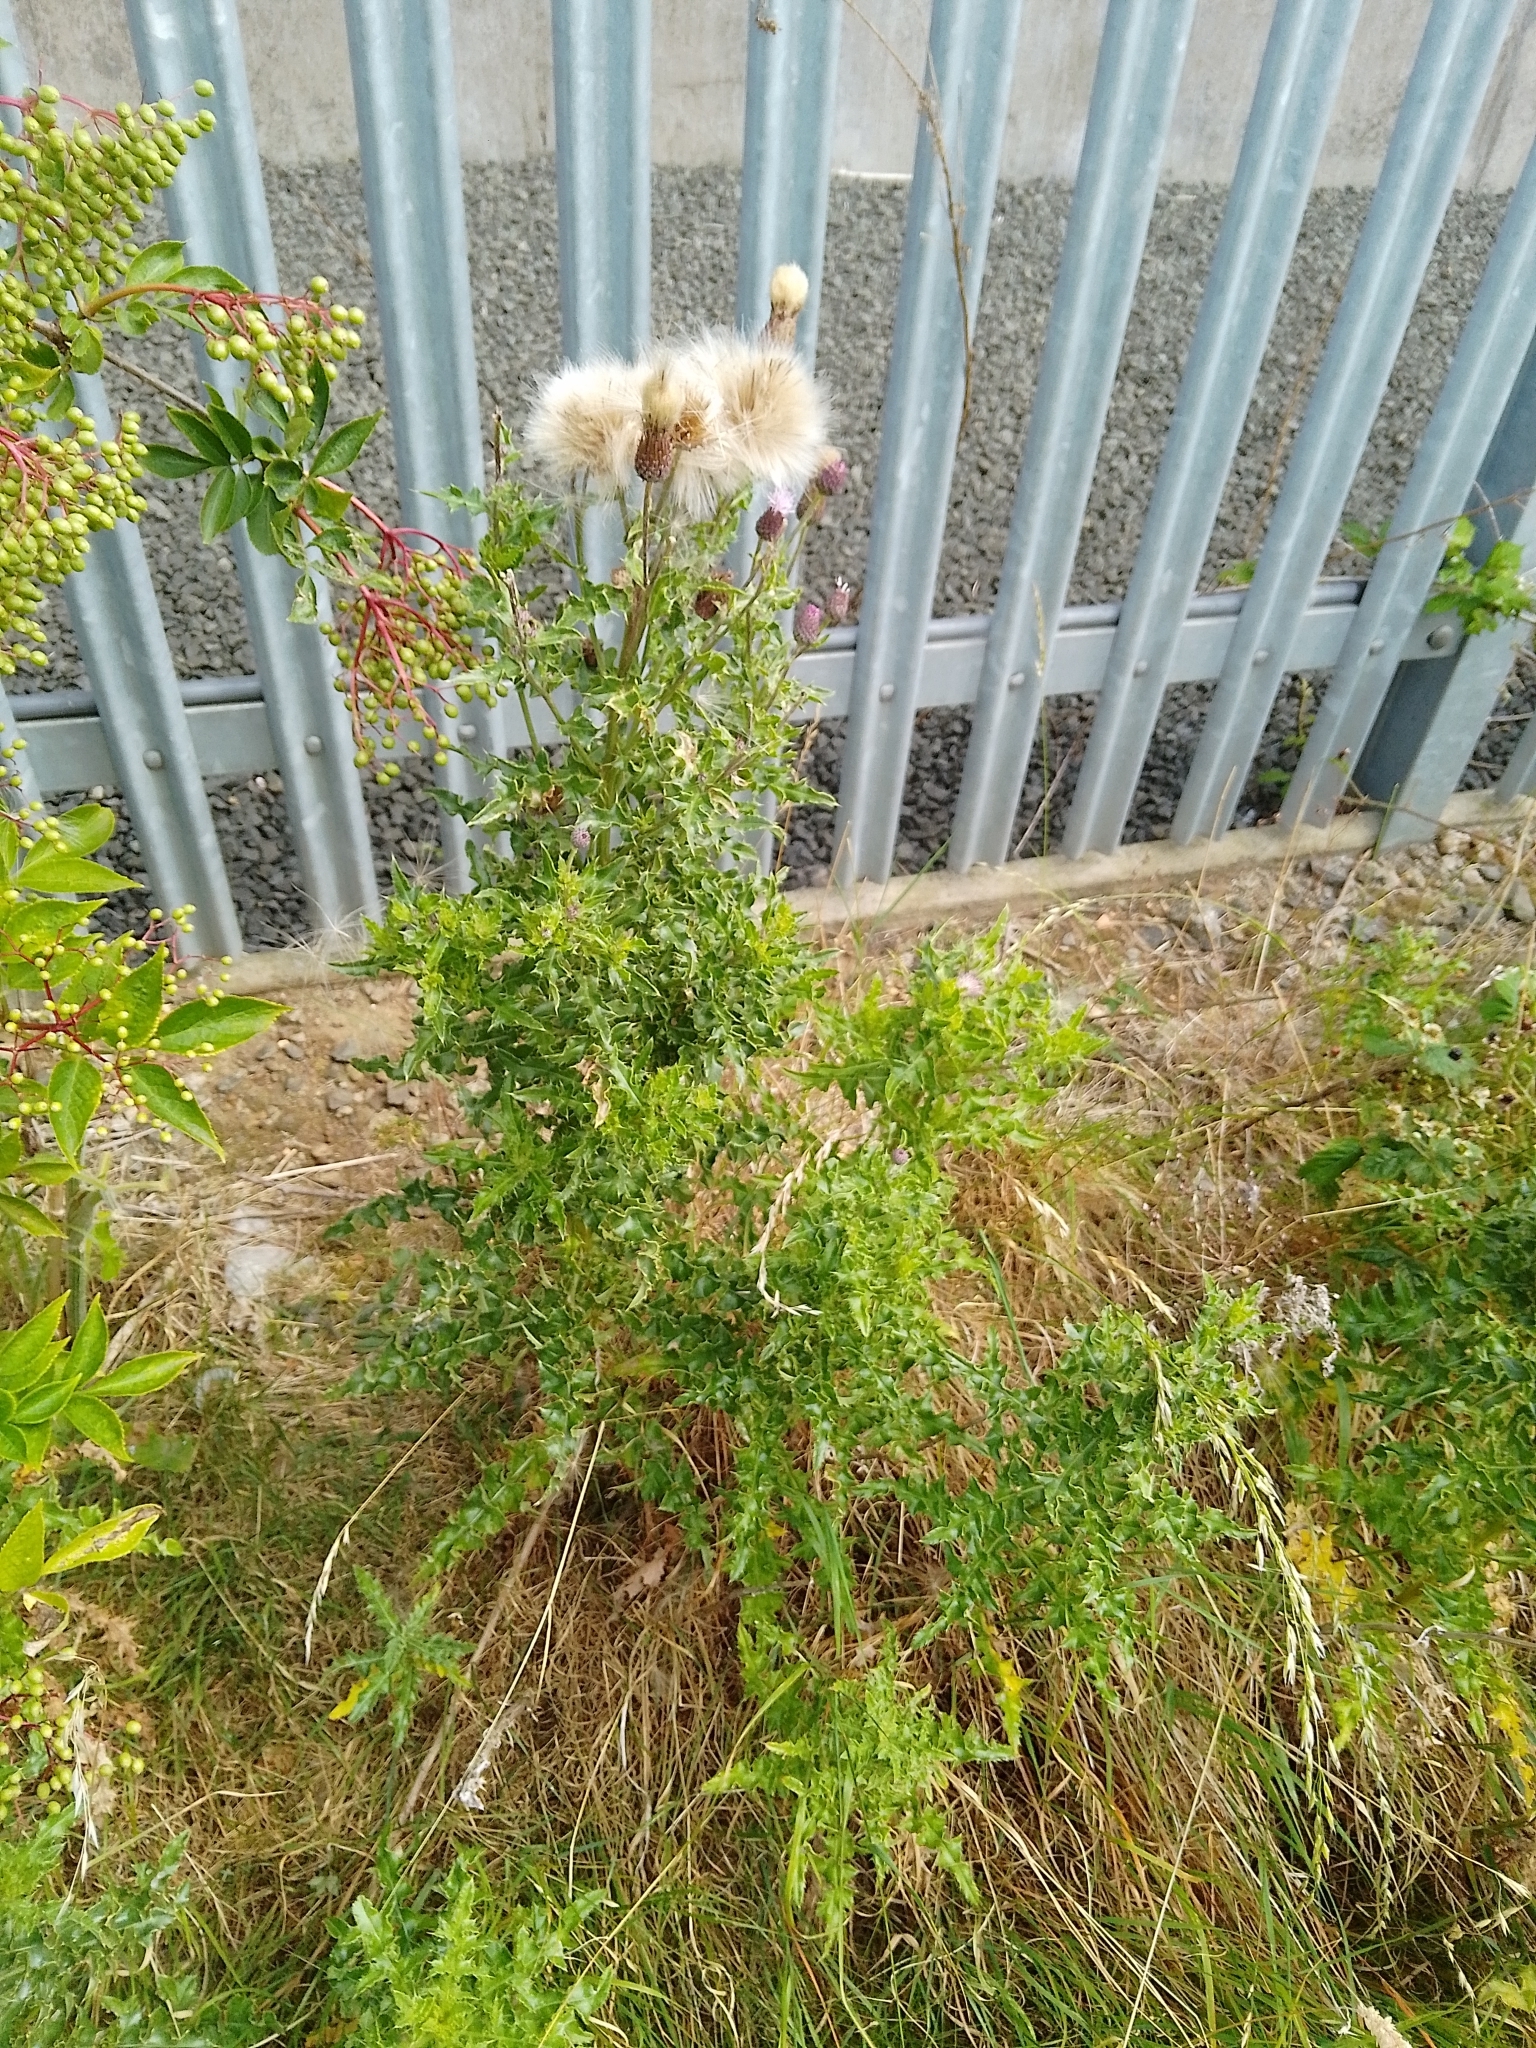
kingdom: Plantae
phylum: Tracheophyta
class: Magnoliopsida
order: Asterales
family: Asteraceae
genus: Cirsium
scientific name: Cirsium arvense
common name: Creeping thistle
